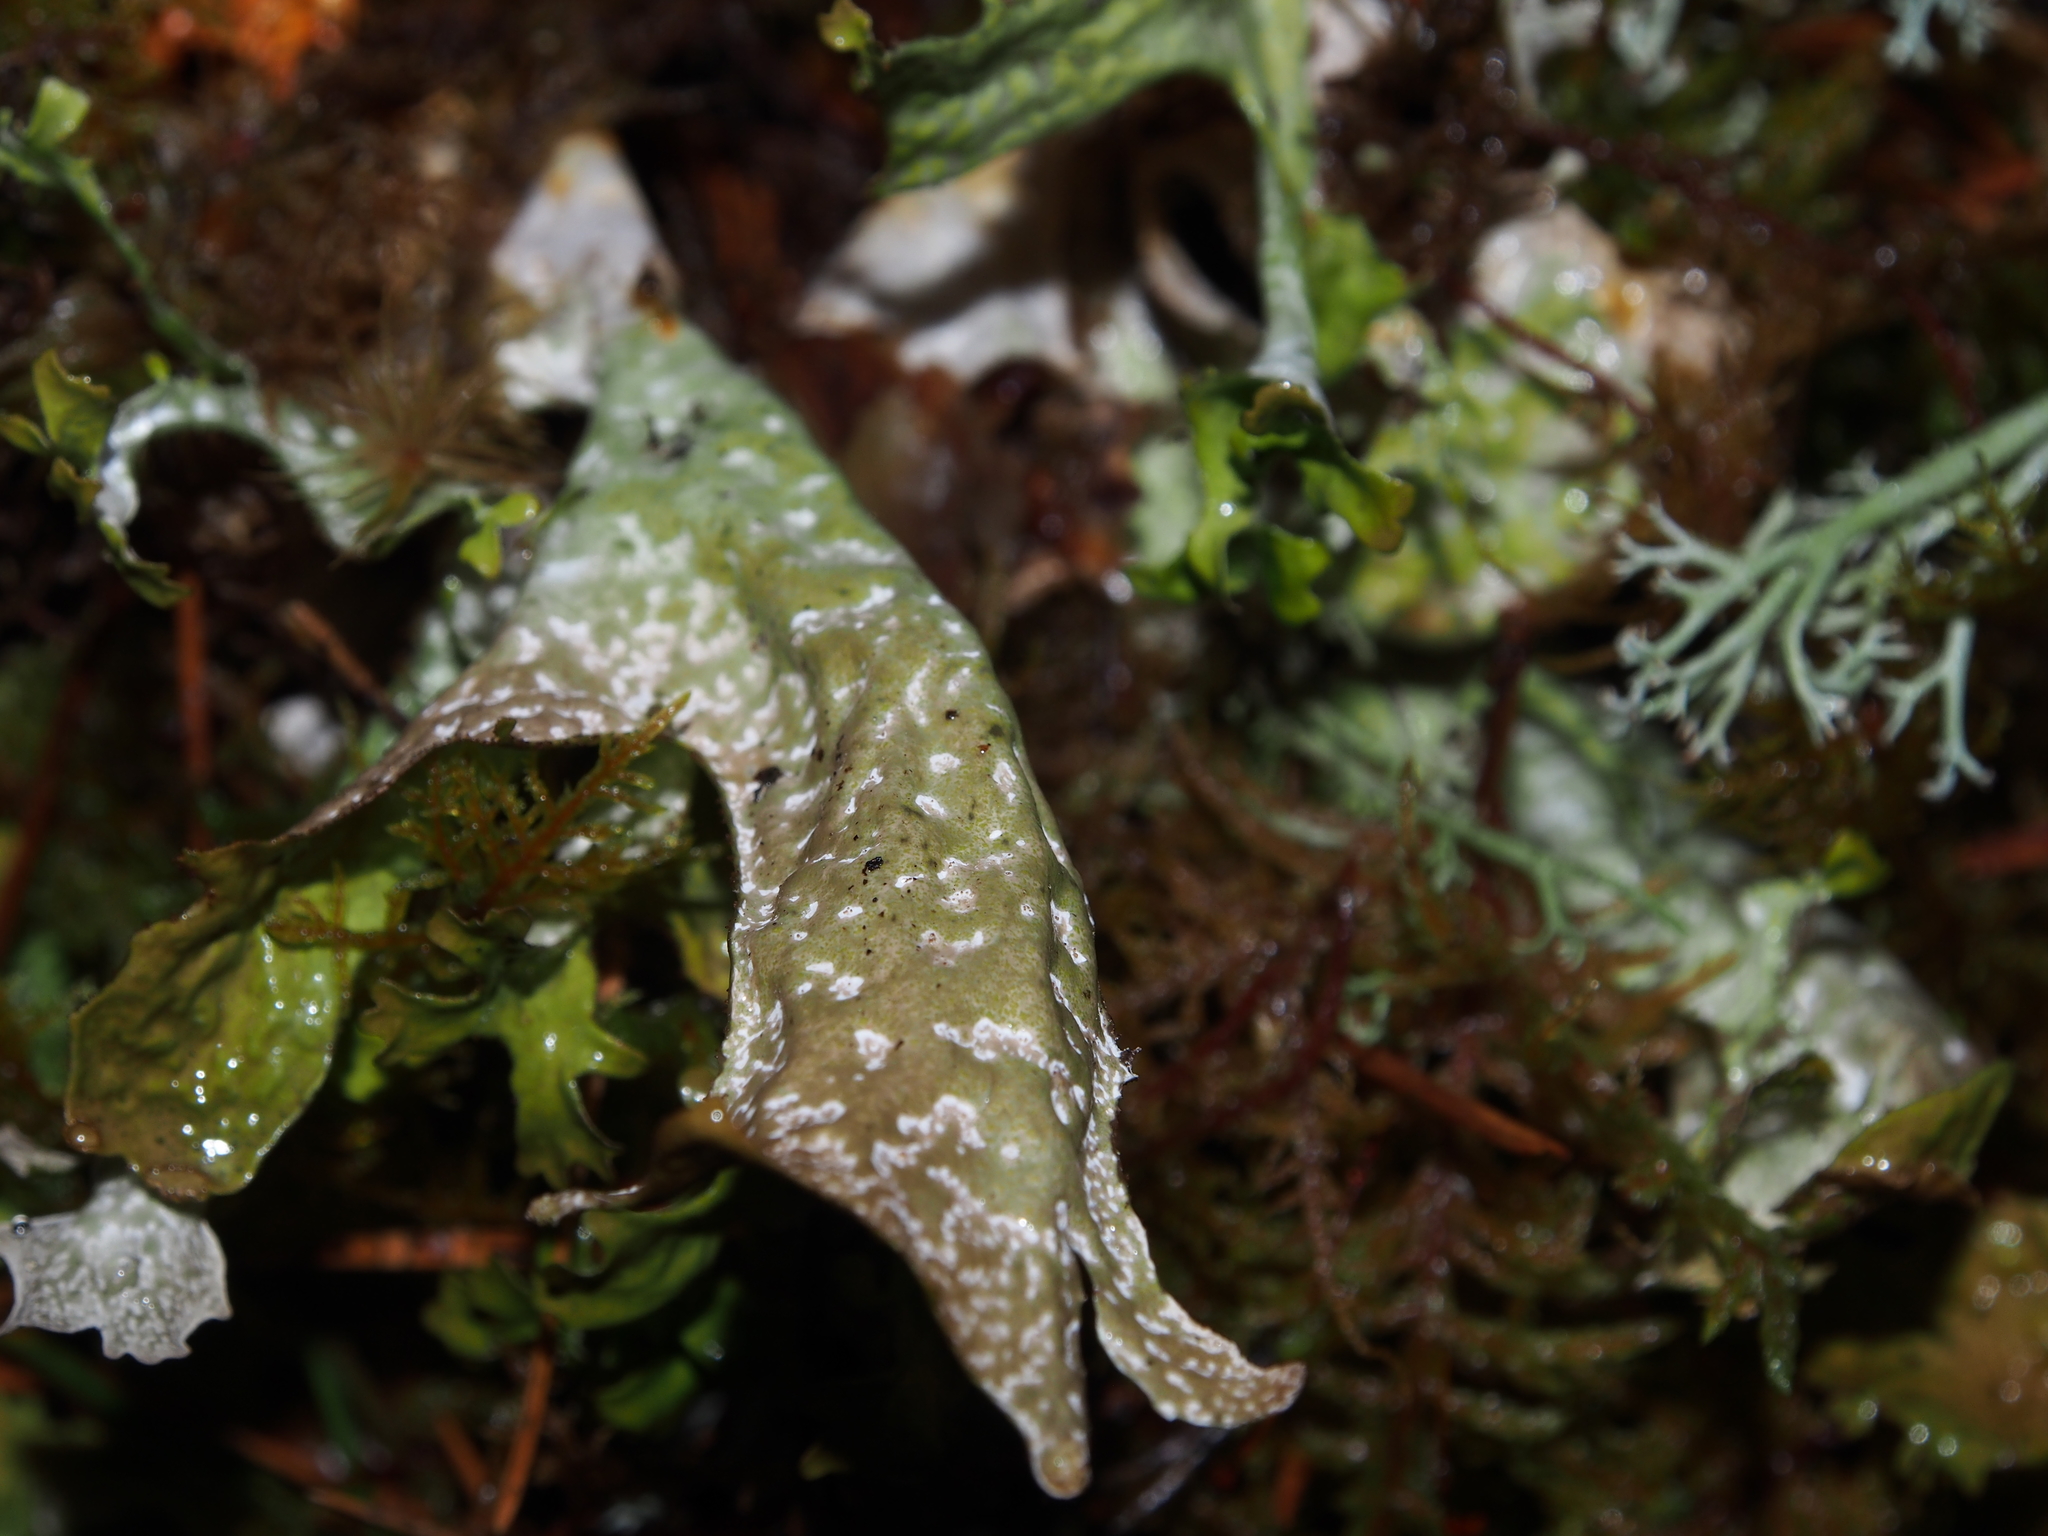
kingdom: Fungi
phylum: Ascomycota
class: Lecanoromycetes
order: Lecanorales
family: Parmeliaceae
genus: Cetraria
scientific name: Cetraria islandica
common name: Iceland lichen
